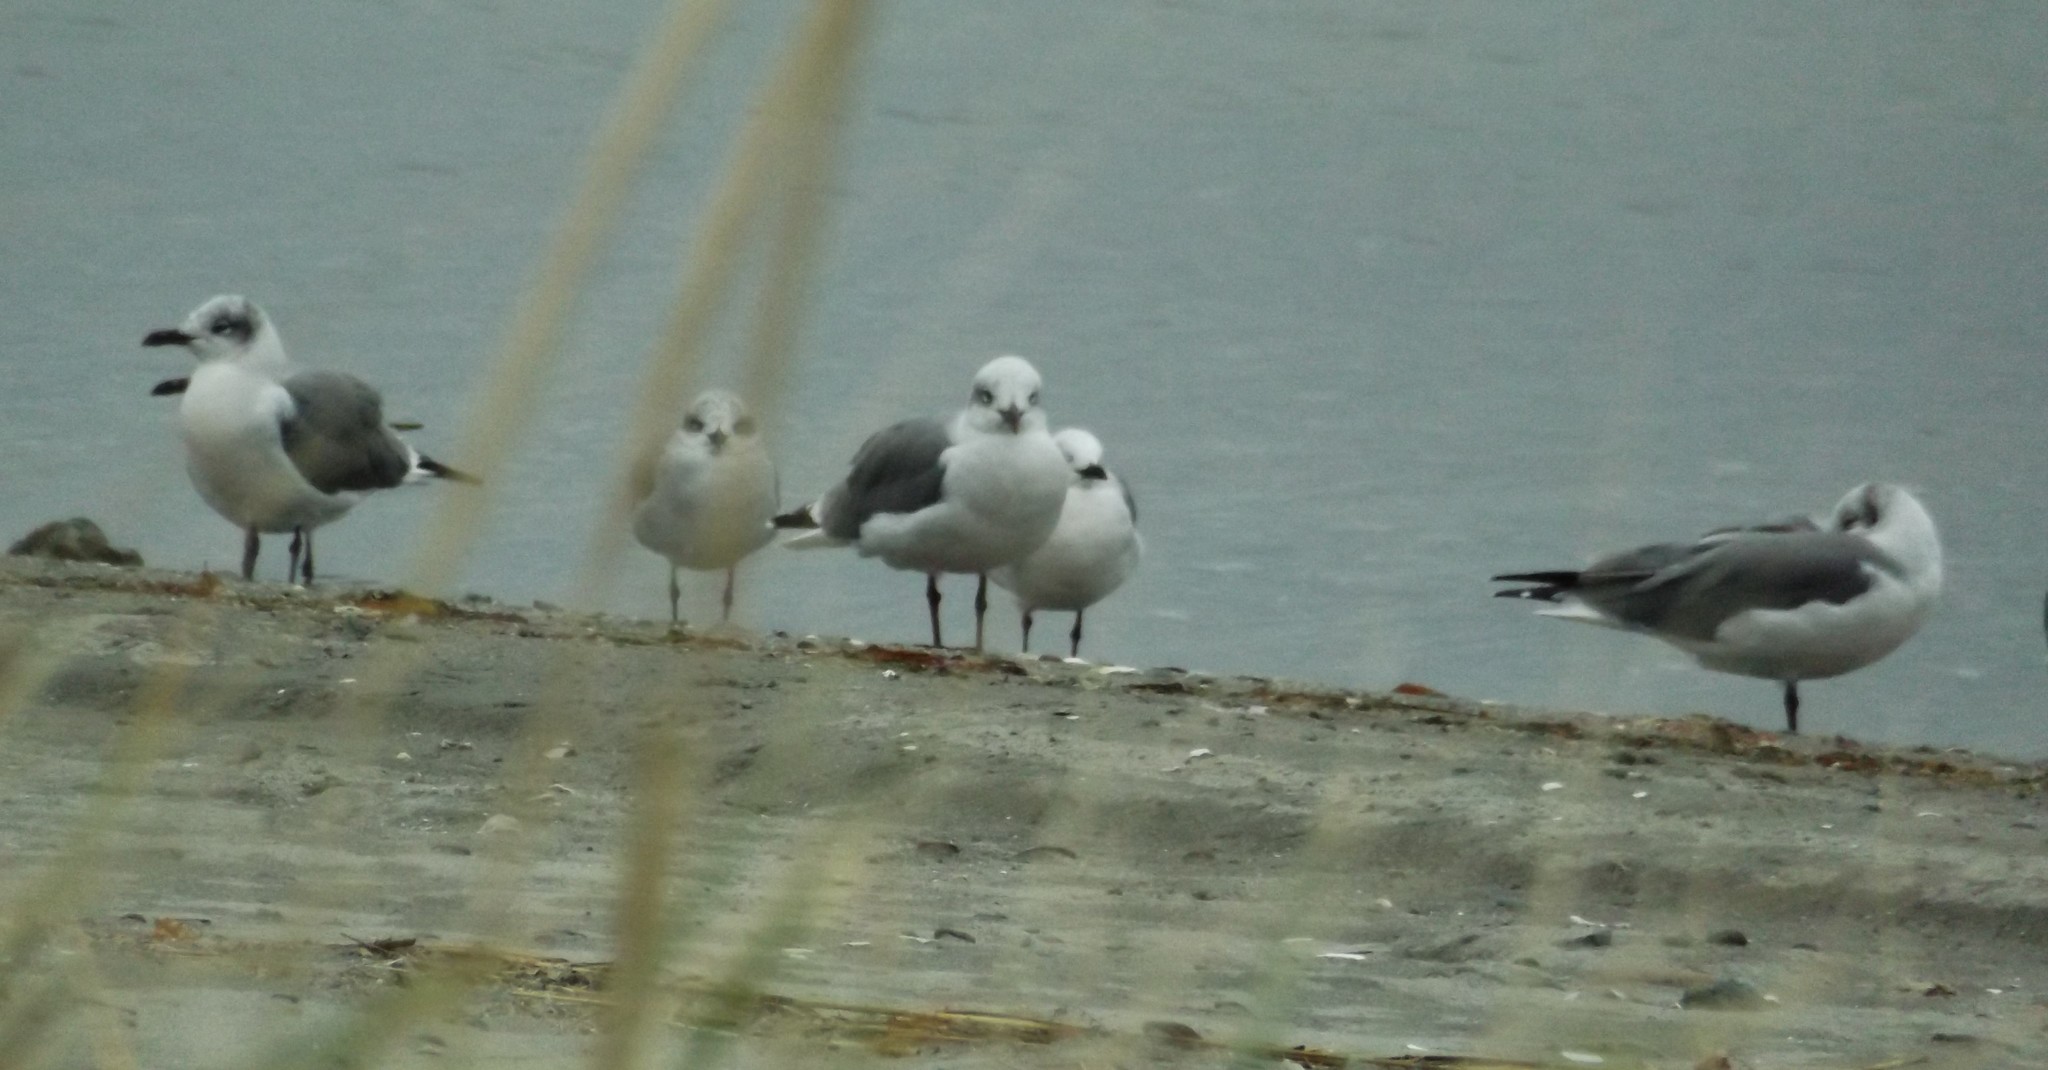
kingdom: Animalia
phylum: Chordata
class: Aves
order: Charadriiformes
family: Laridae
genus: Leucophaeus
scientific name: Leucophaeus atricilla
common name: Laughing gull
